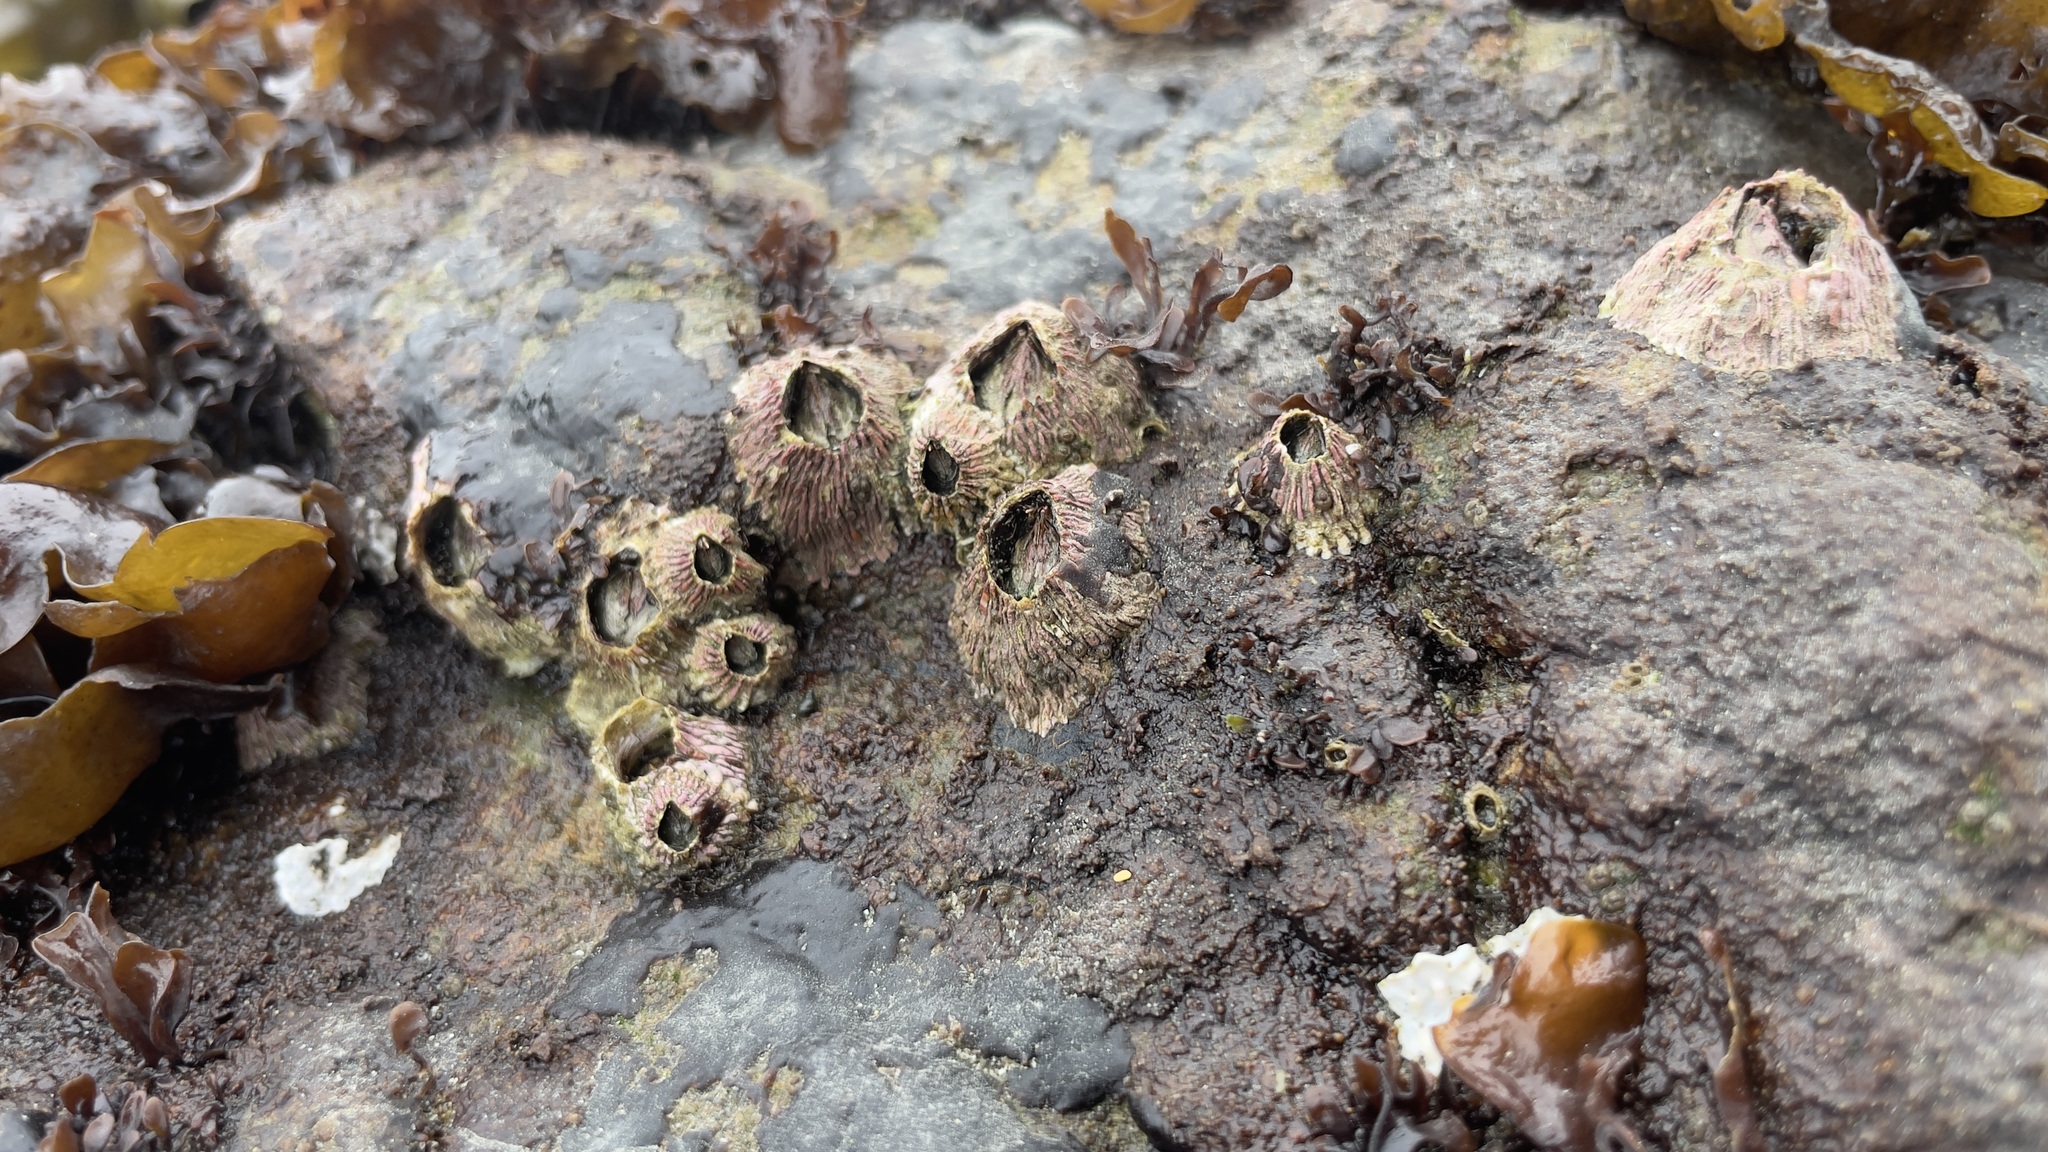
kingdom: Animalia
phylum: Arthropoda
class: Maxillopoda
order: Sessilia
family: Tetraclitidae
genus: Tetraclita
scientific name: Tetraclita rubescens
